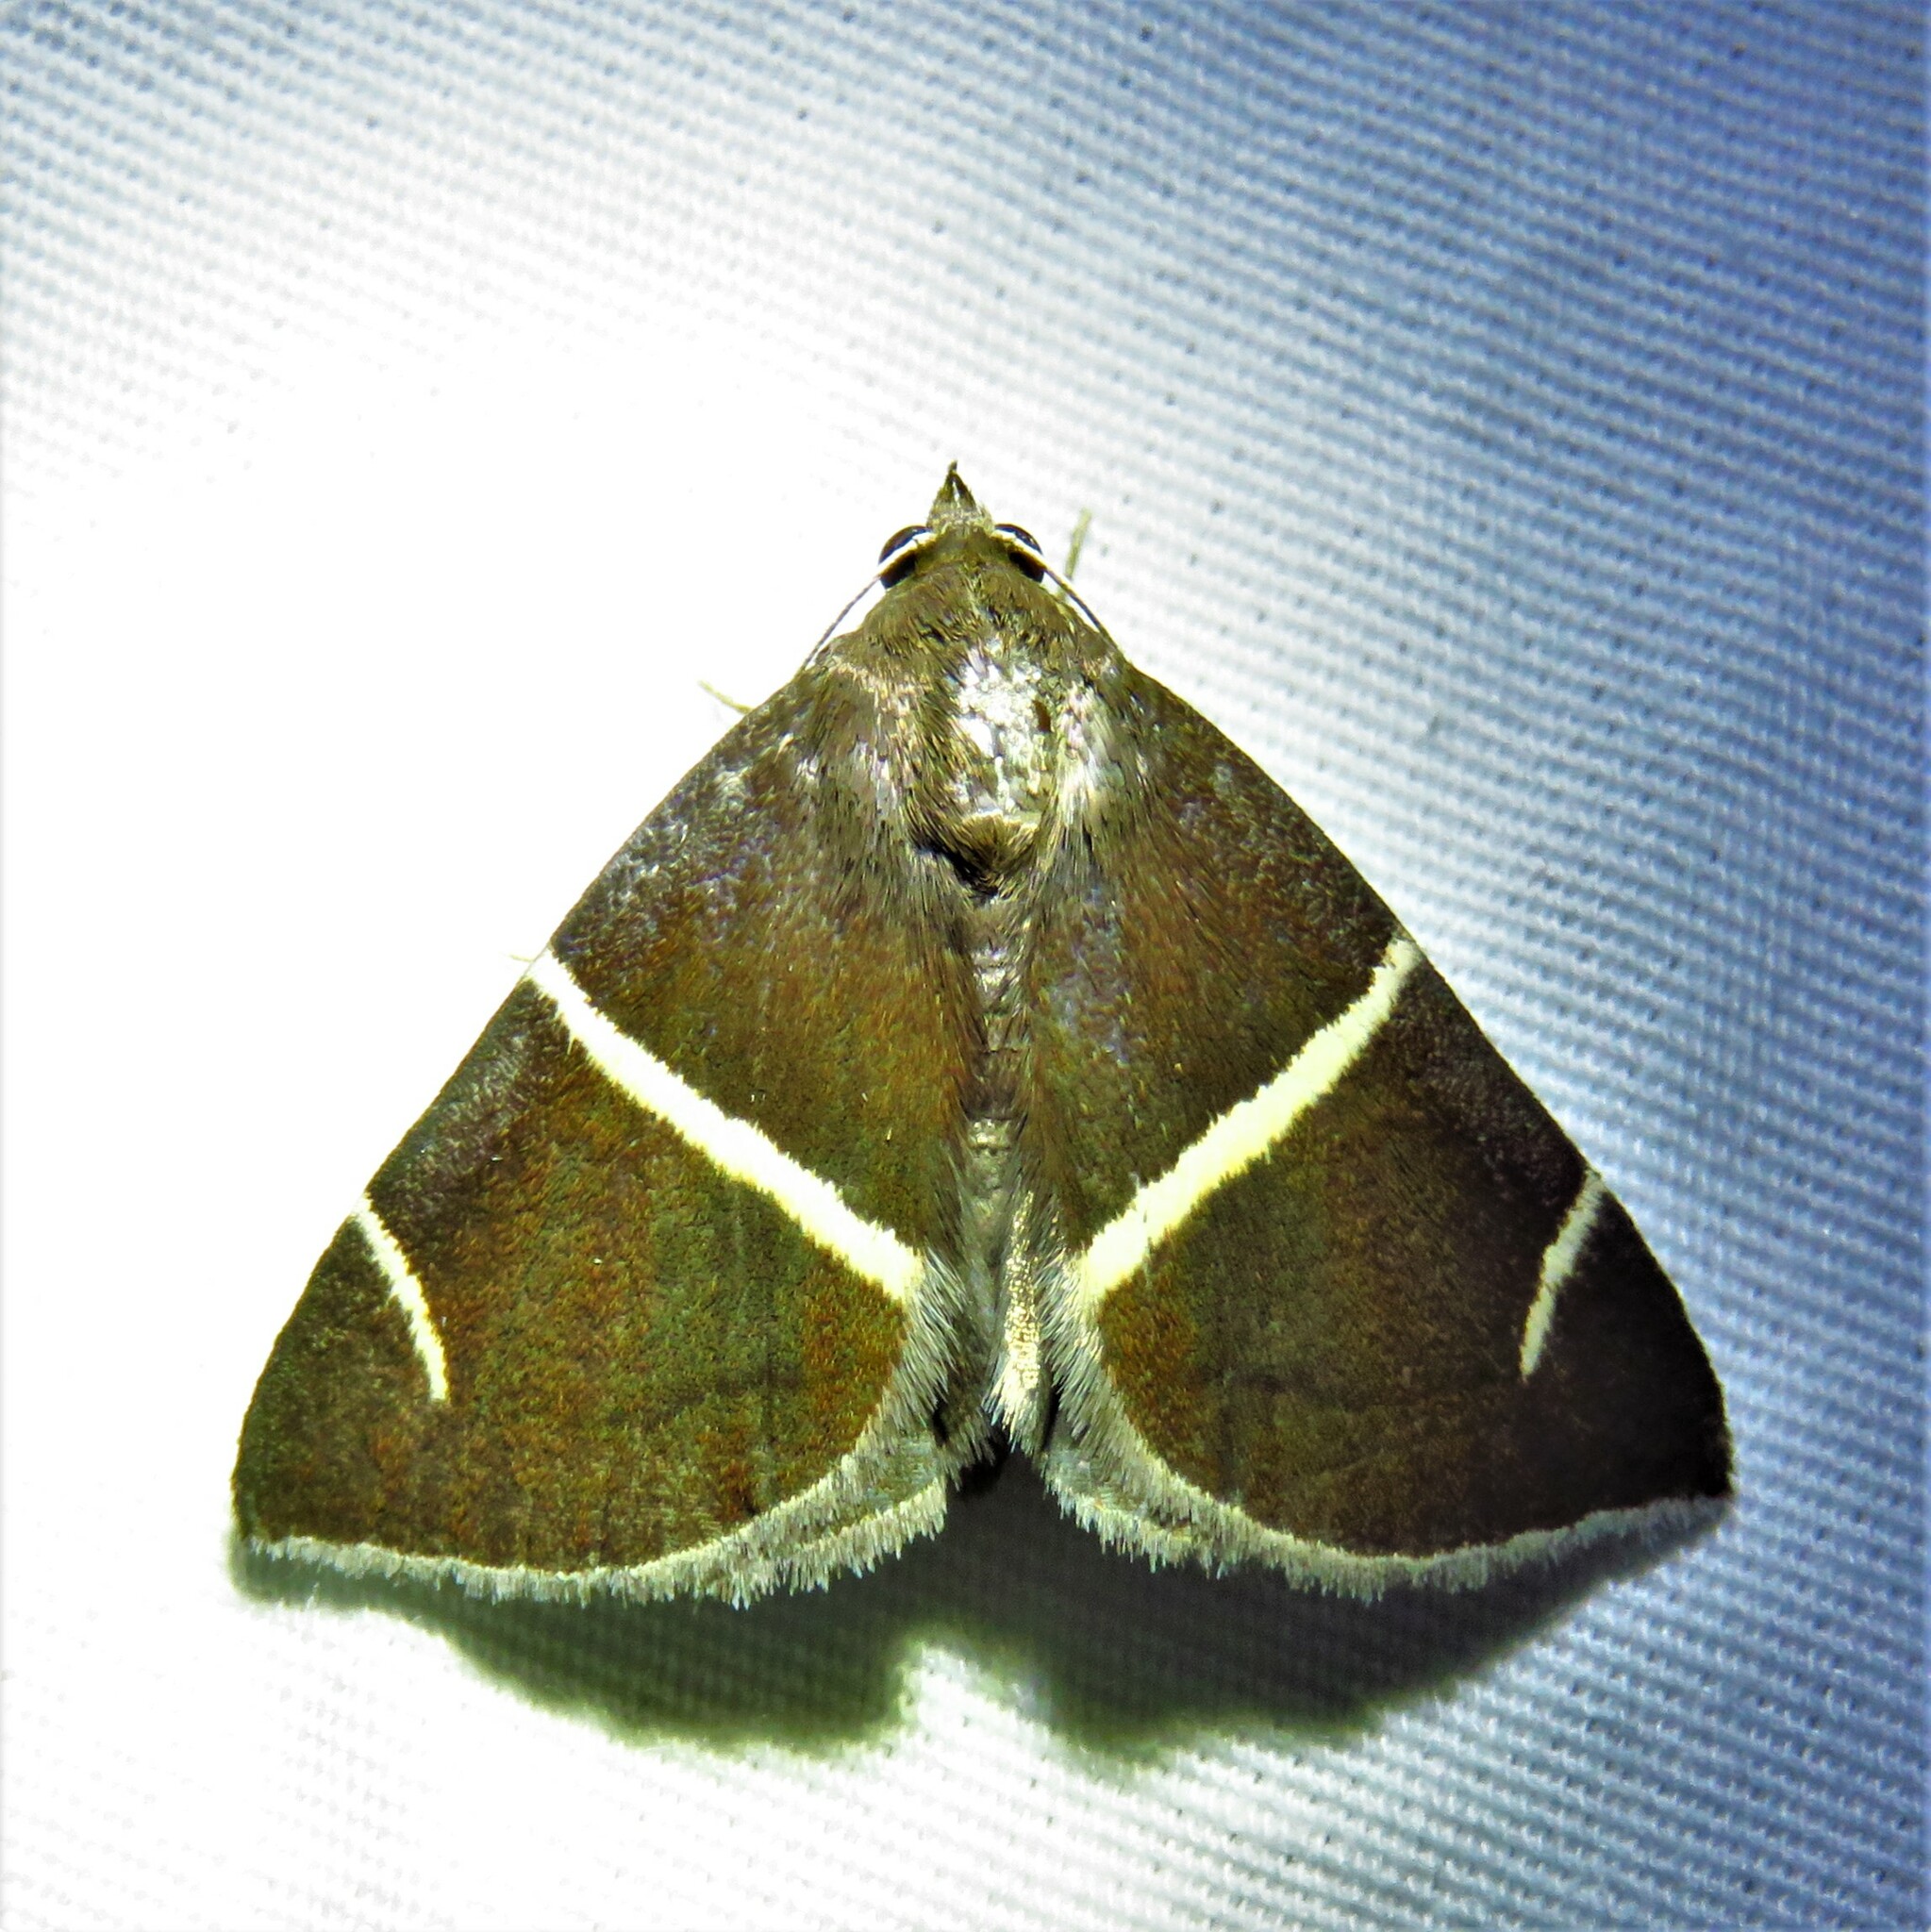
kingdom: Animalia
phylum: Arthropoda
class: Insecta
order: Lepidoptera
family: Erebidae
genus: Argyrostrotis
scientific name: Argyrostrotis anilis
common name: Short-lined chocolate
